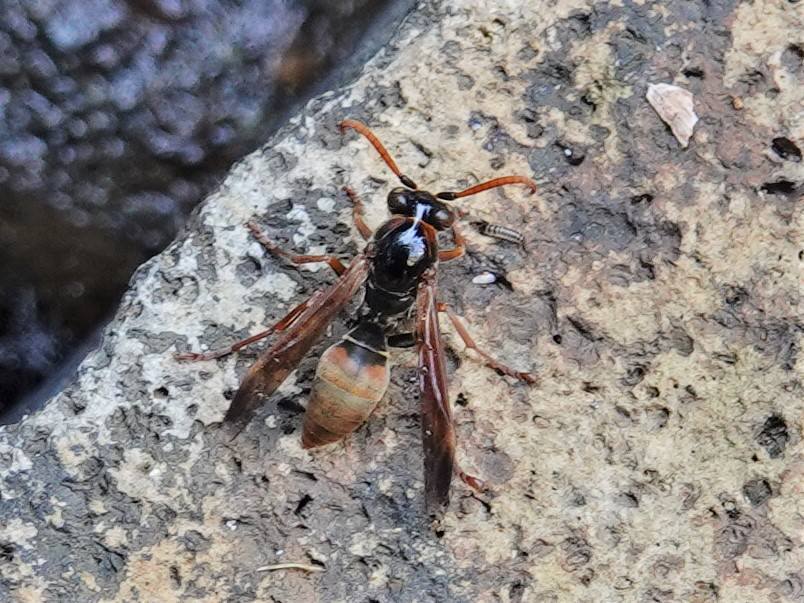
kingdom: Animalia
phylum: Arthropoda
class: Insecta
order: Hymenoptera
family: Eumenidae
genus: Polistes
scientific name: Polistes humilis
